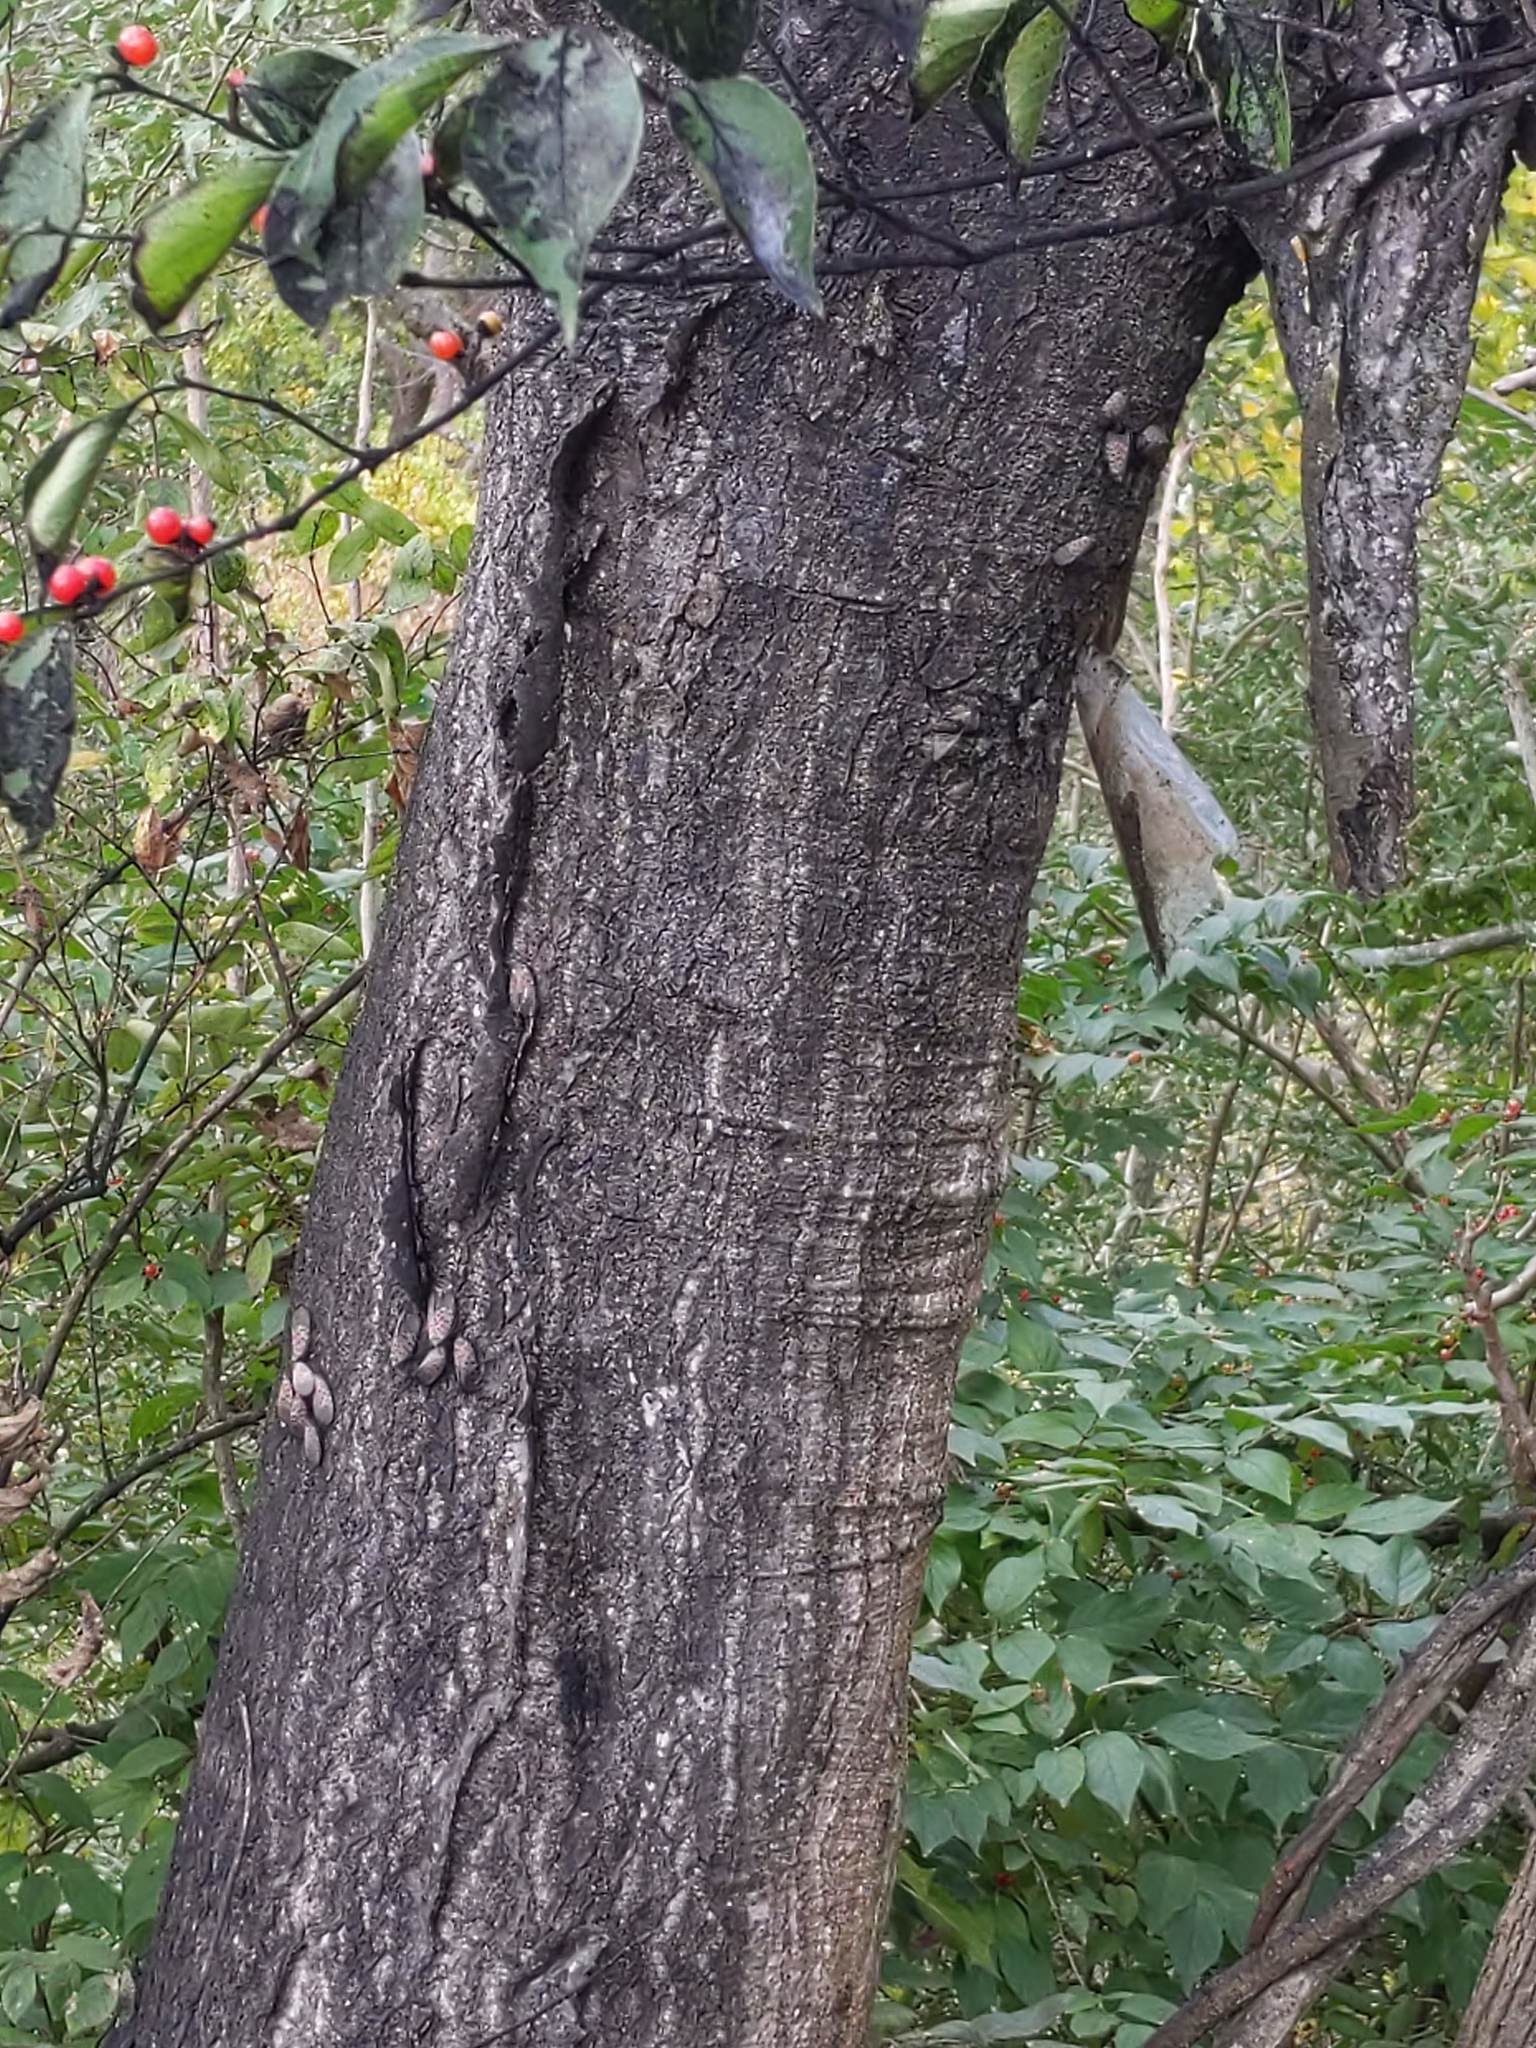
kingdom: Animalia
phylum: Arthropoda
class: Insecta
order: Hemiptera
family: Fulgoridae
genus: Lycorma
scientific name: Lycorma delicatula
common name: Spotted lanternfly
